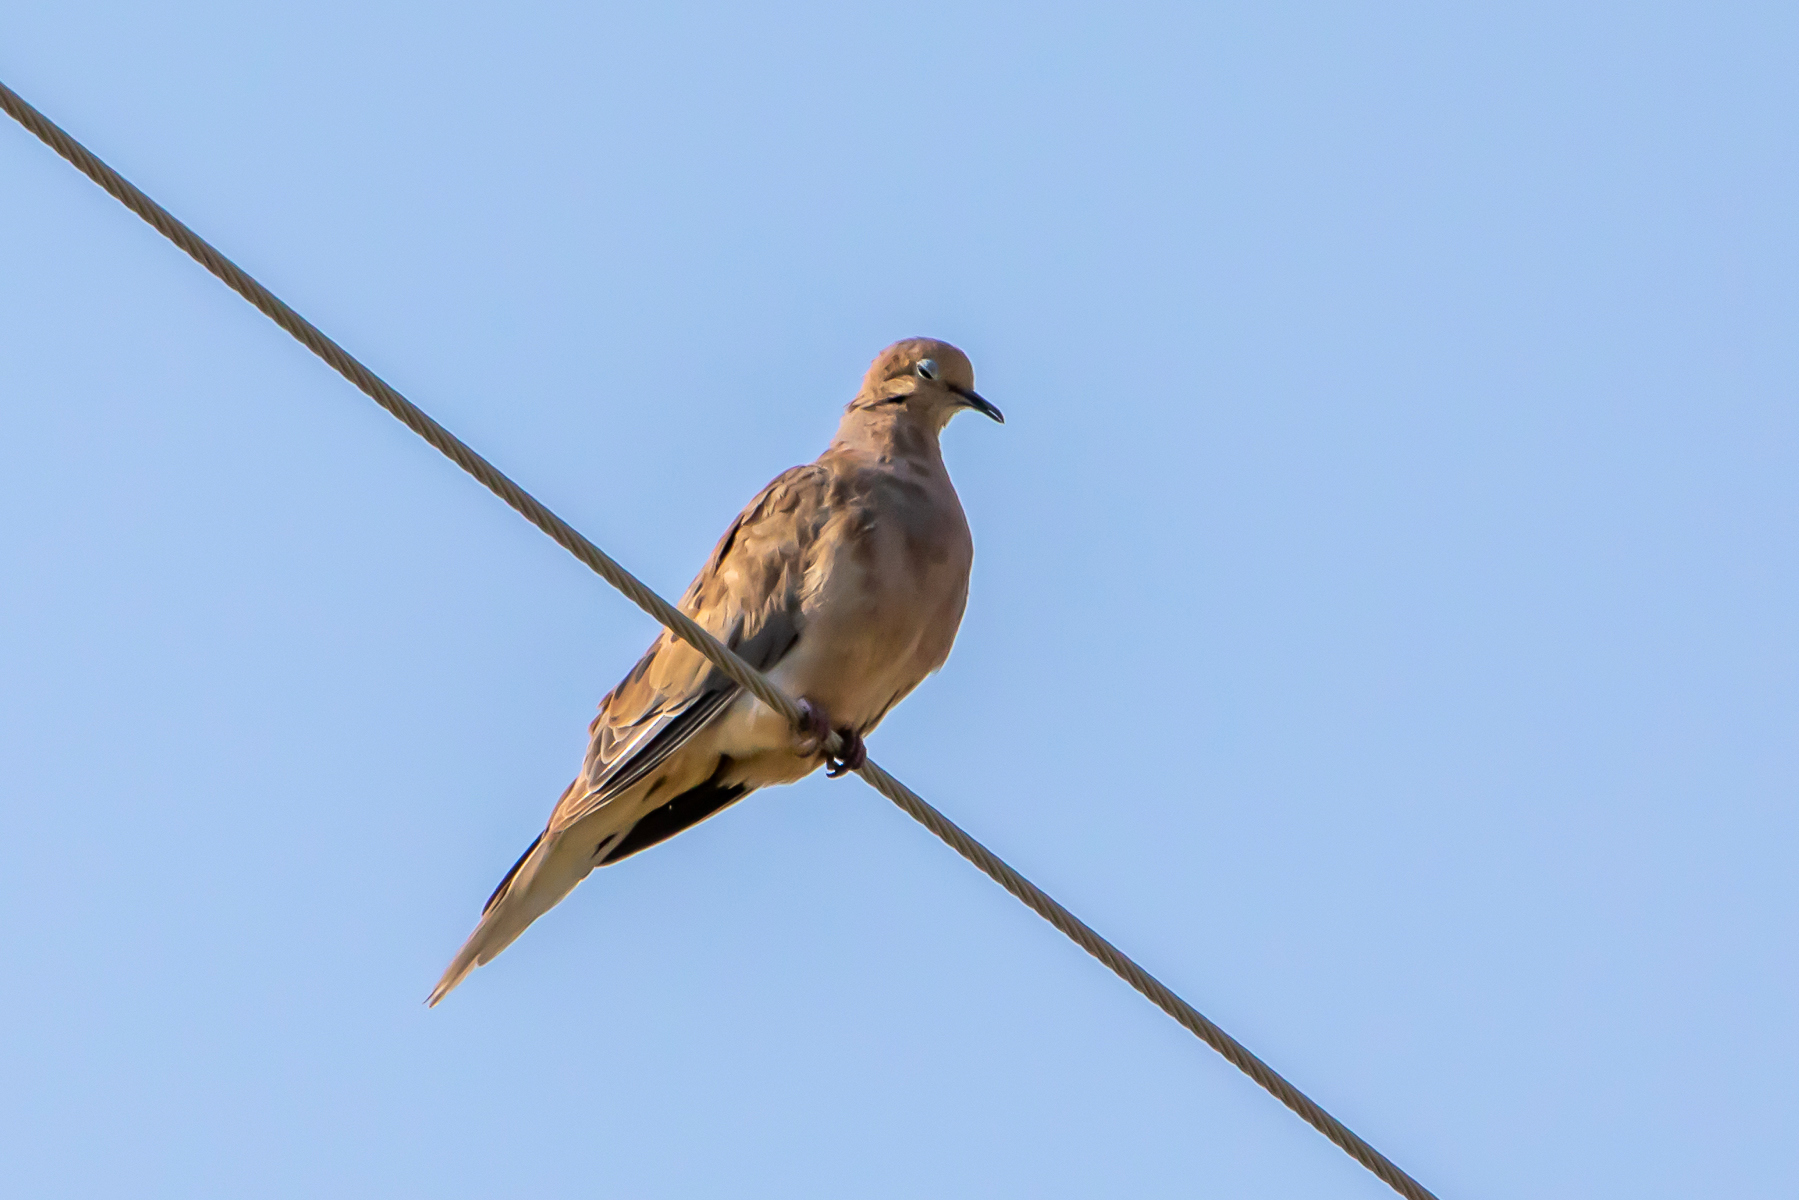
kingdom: Animalia
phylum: Chordata
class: Aves
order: Columbiformes
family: Columbidae
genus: Zenaida
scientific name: Zenaida macroura
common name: Mourning dove
